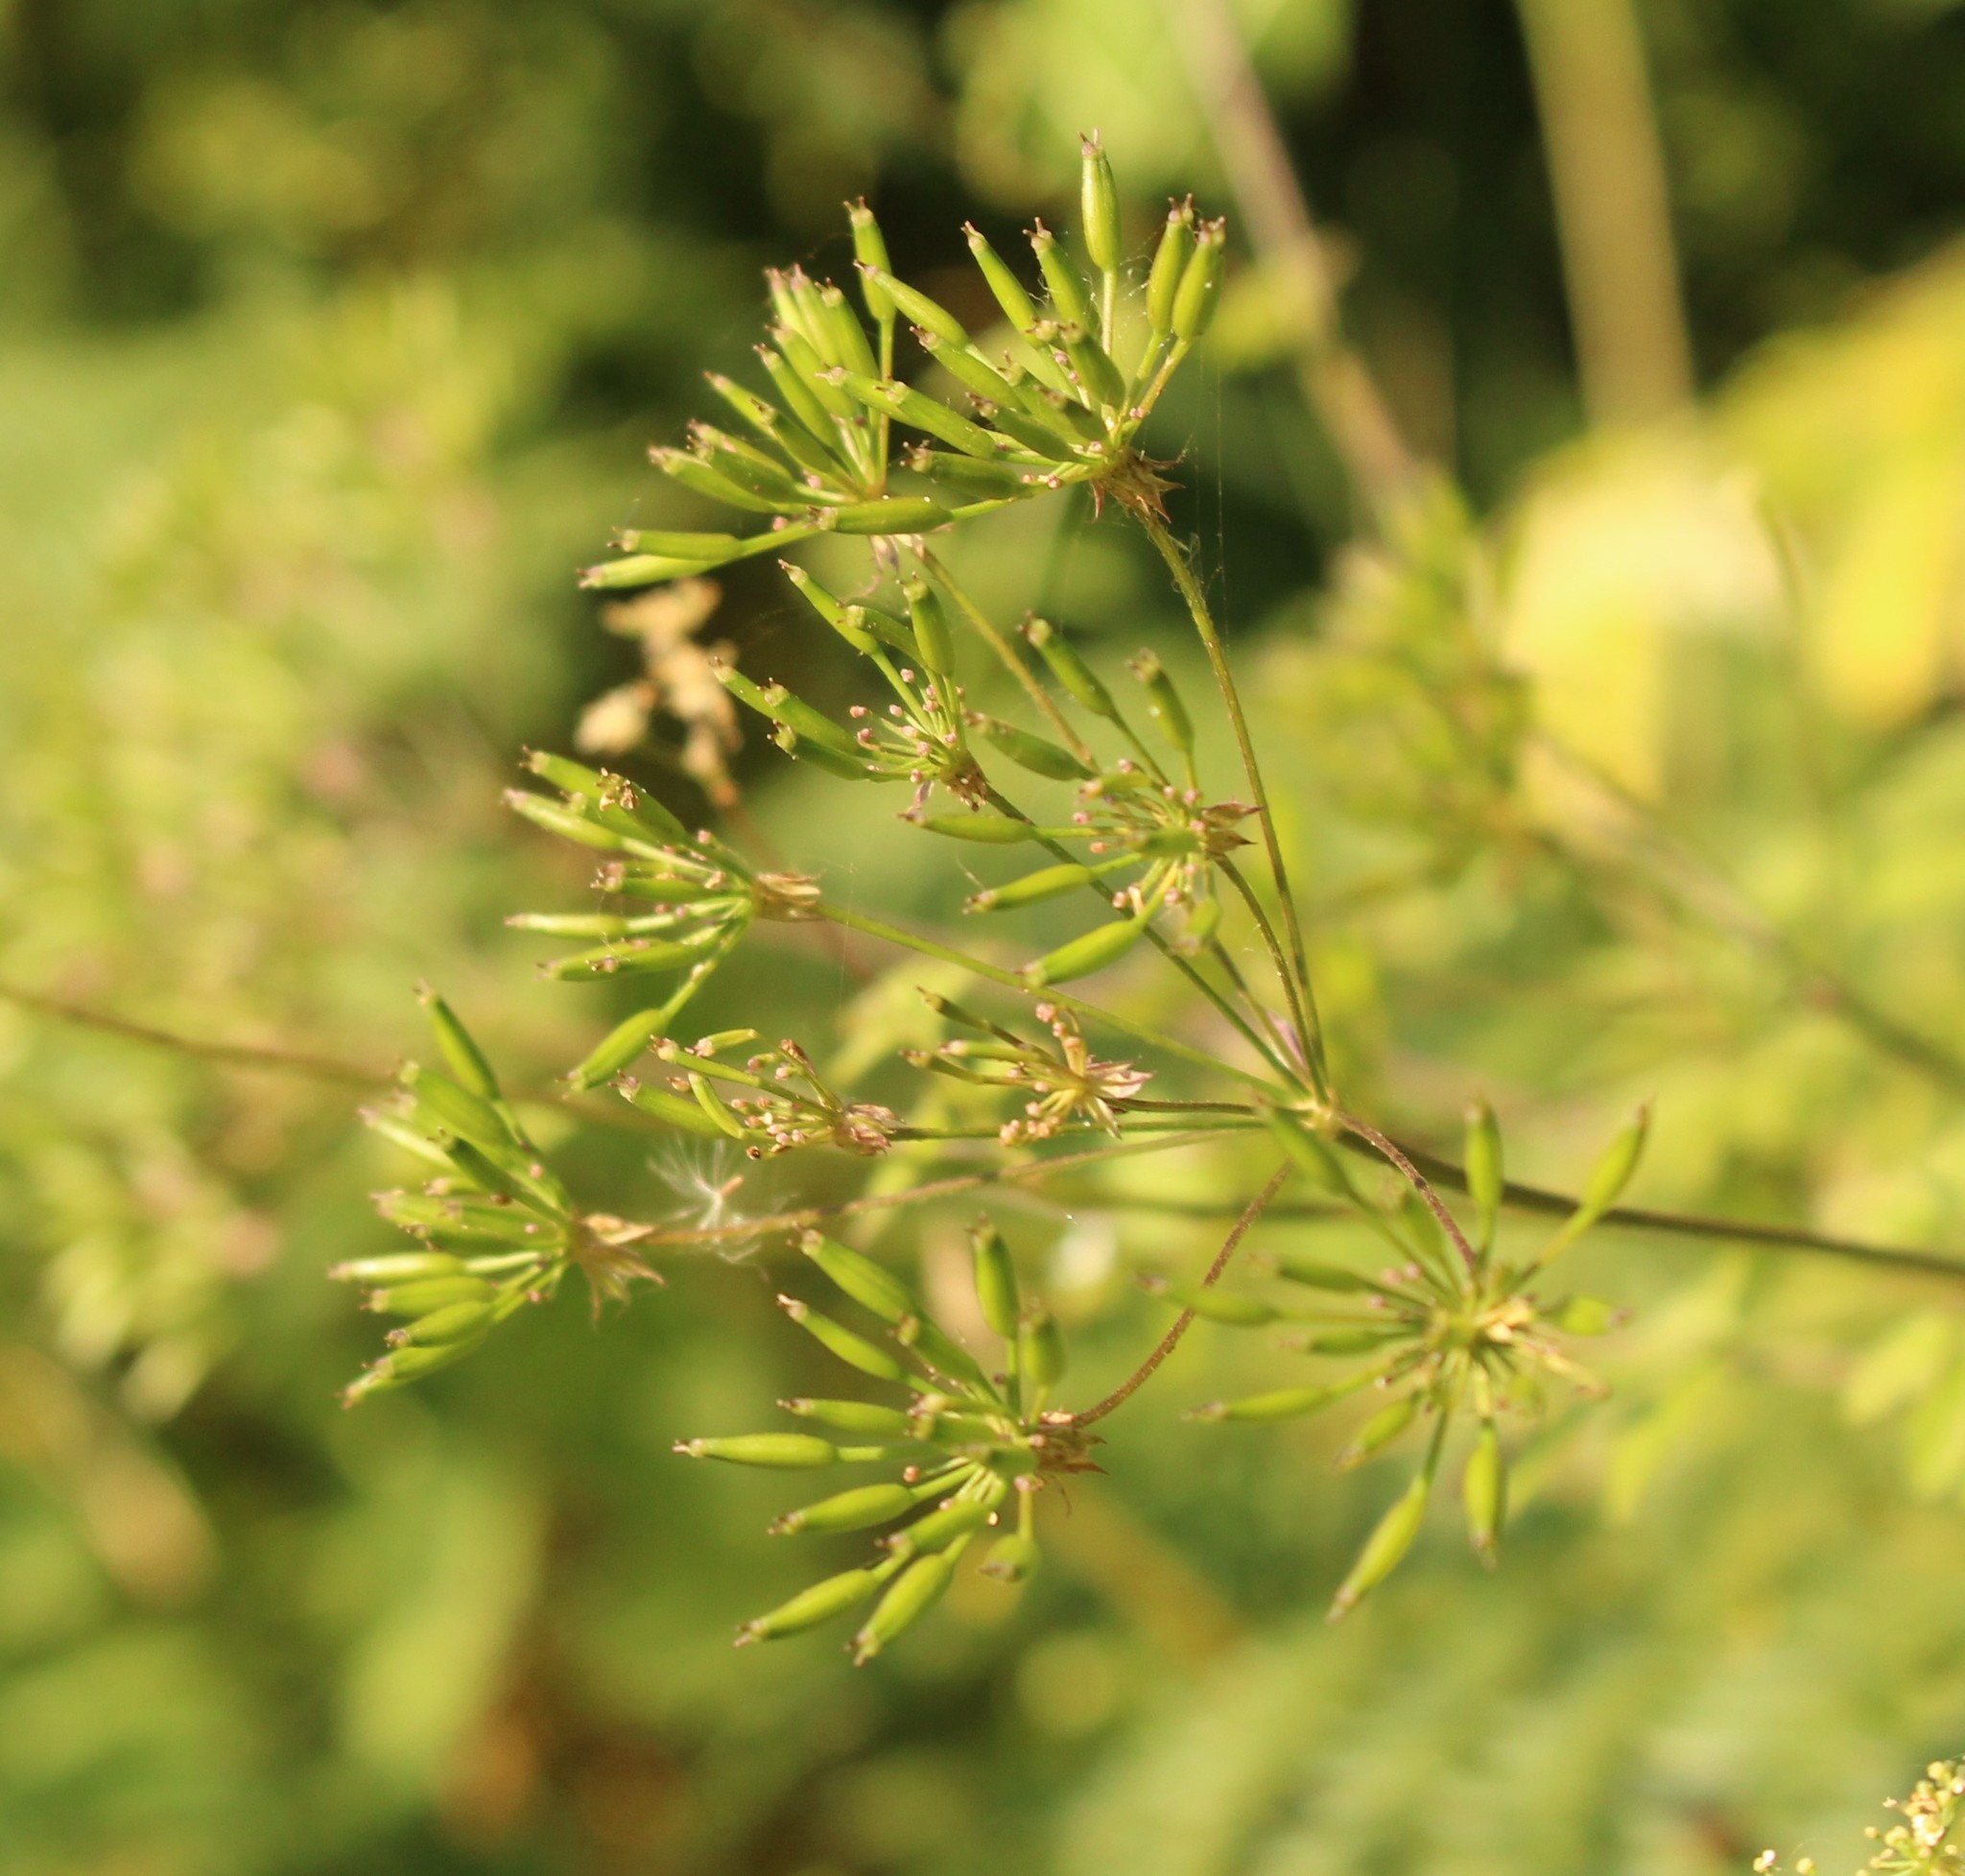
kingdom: Plantae
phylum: Tracheophyta
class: Magnoliopsida
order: Apiales
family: Apiaceae
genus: Chaerophyllum
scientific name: Chaerophyllum temulum
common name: Rough chervil
